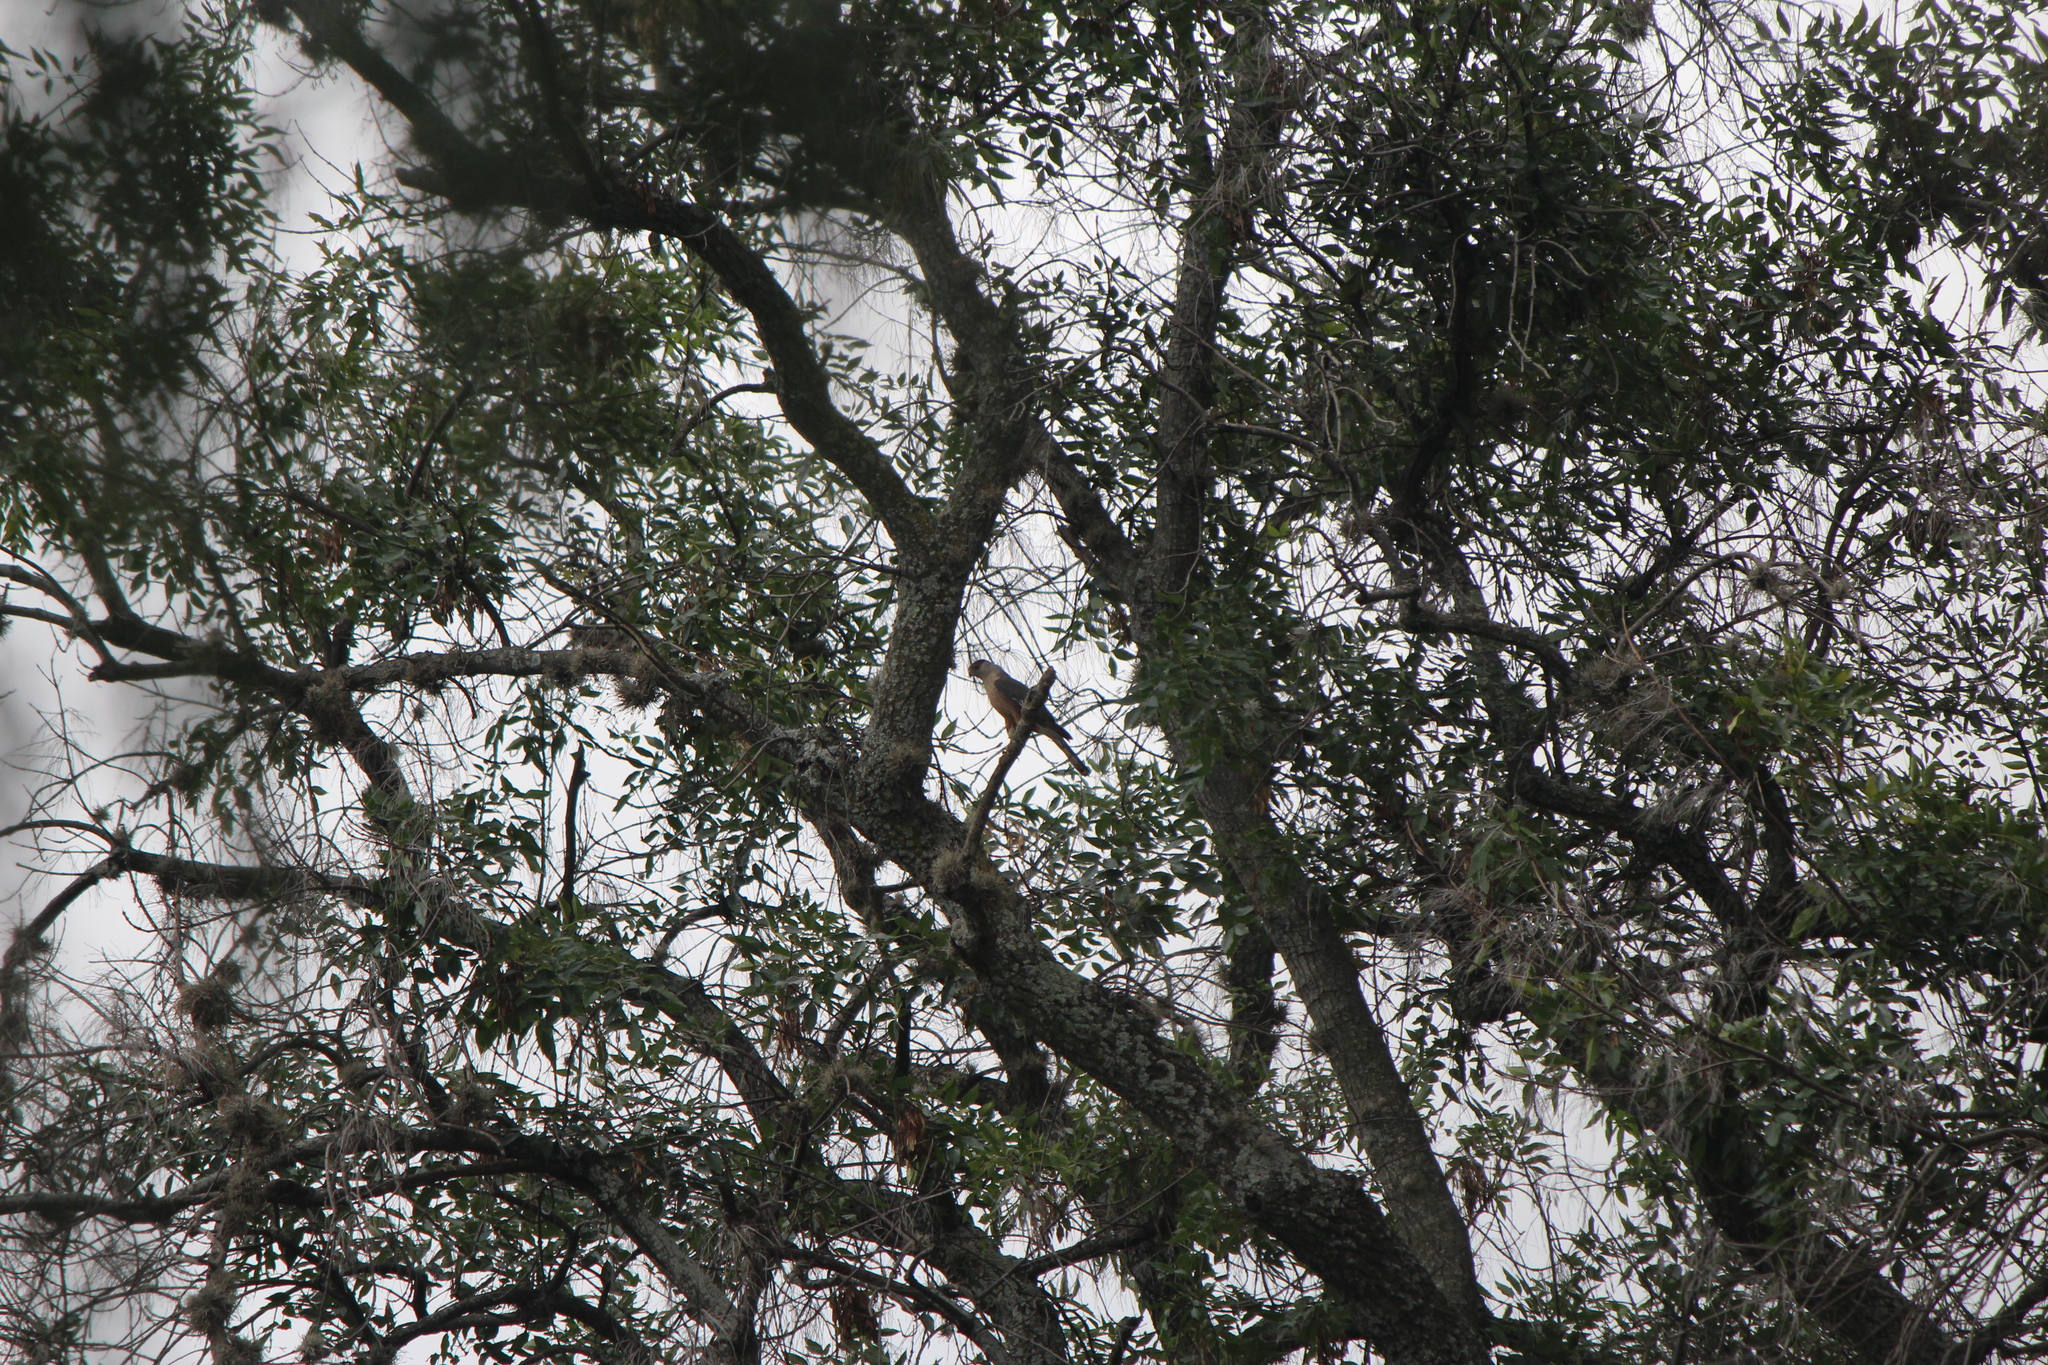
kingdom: Animalia
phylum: Chordata
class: Aves
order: Accipitriformes
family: Accipitridae
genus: Accipiter
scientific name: Accipiter cooperii
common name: Cooper's hawk
